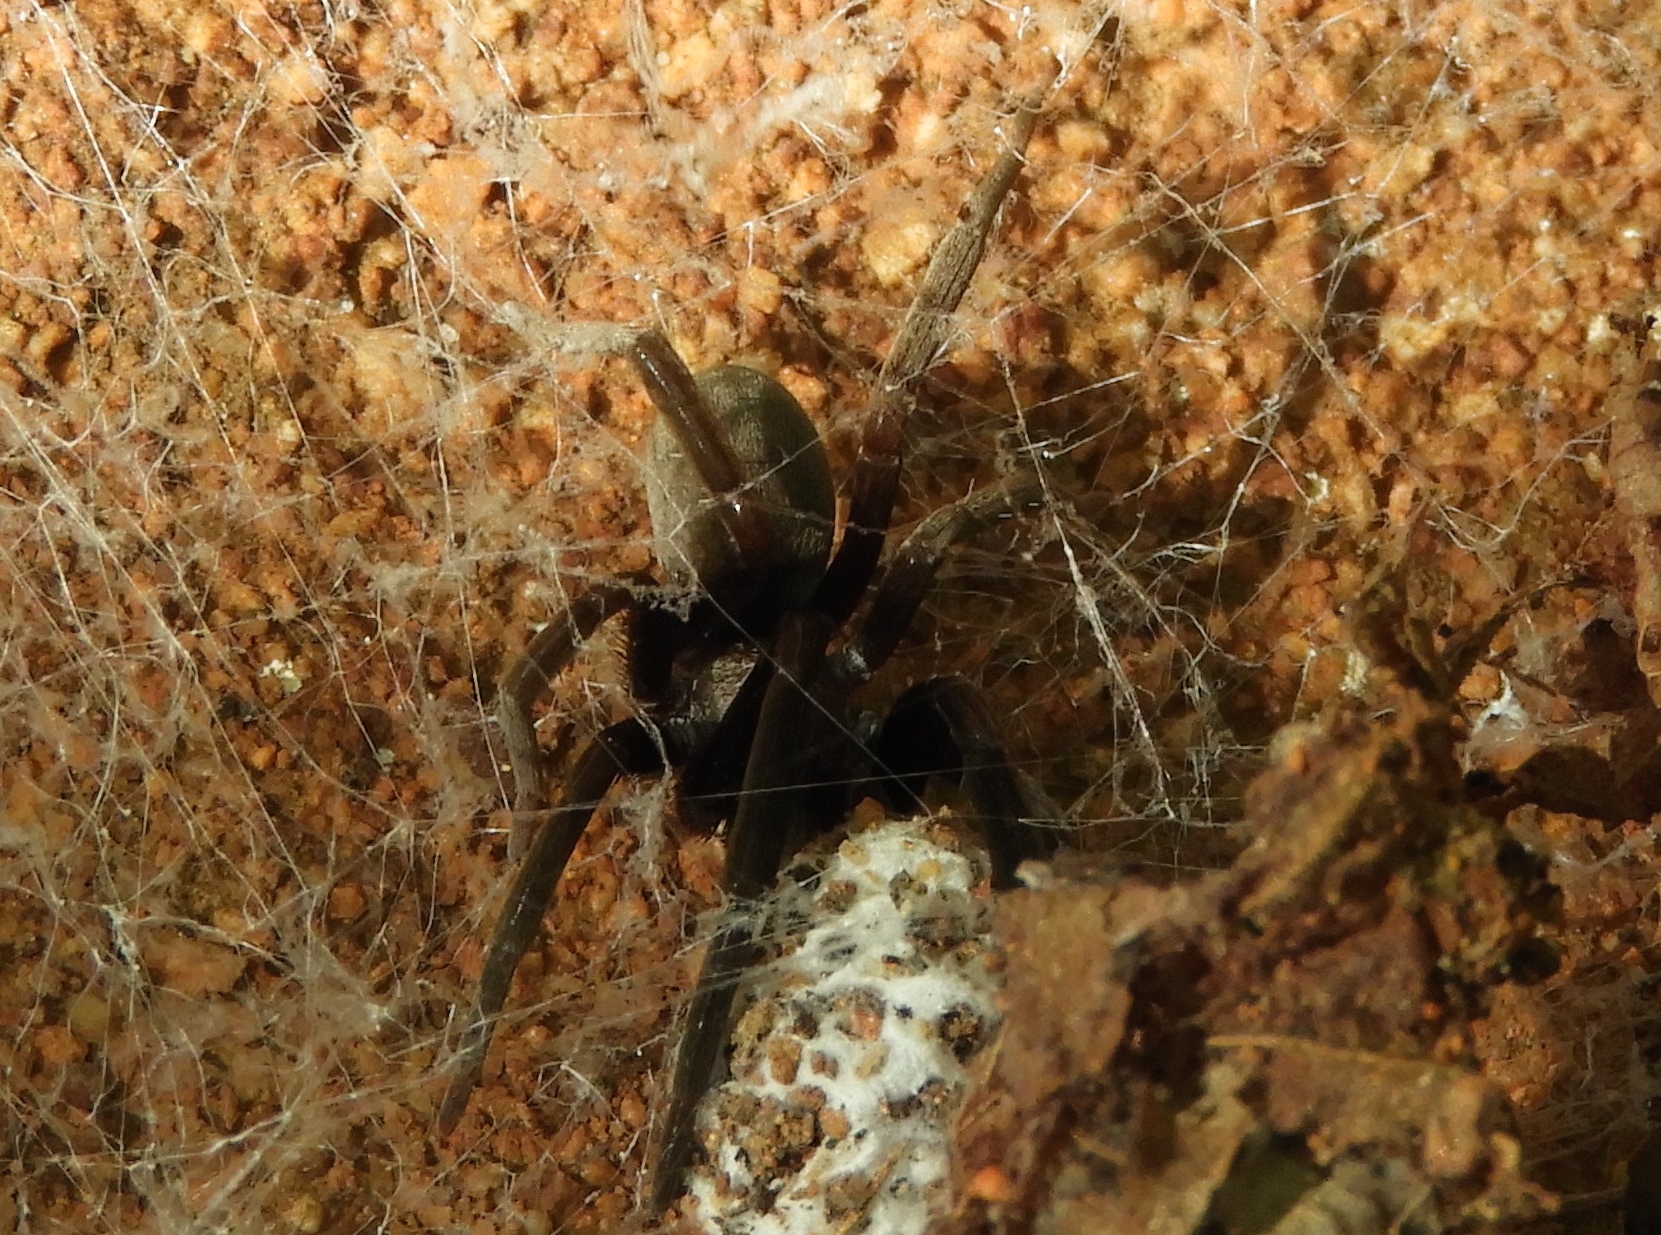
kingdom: Animalia
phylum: Arthropoda
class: Arachnida
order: Araneae
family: Filistatidae
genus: Kukulcania
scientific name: Kukulcania
